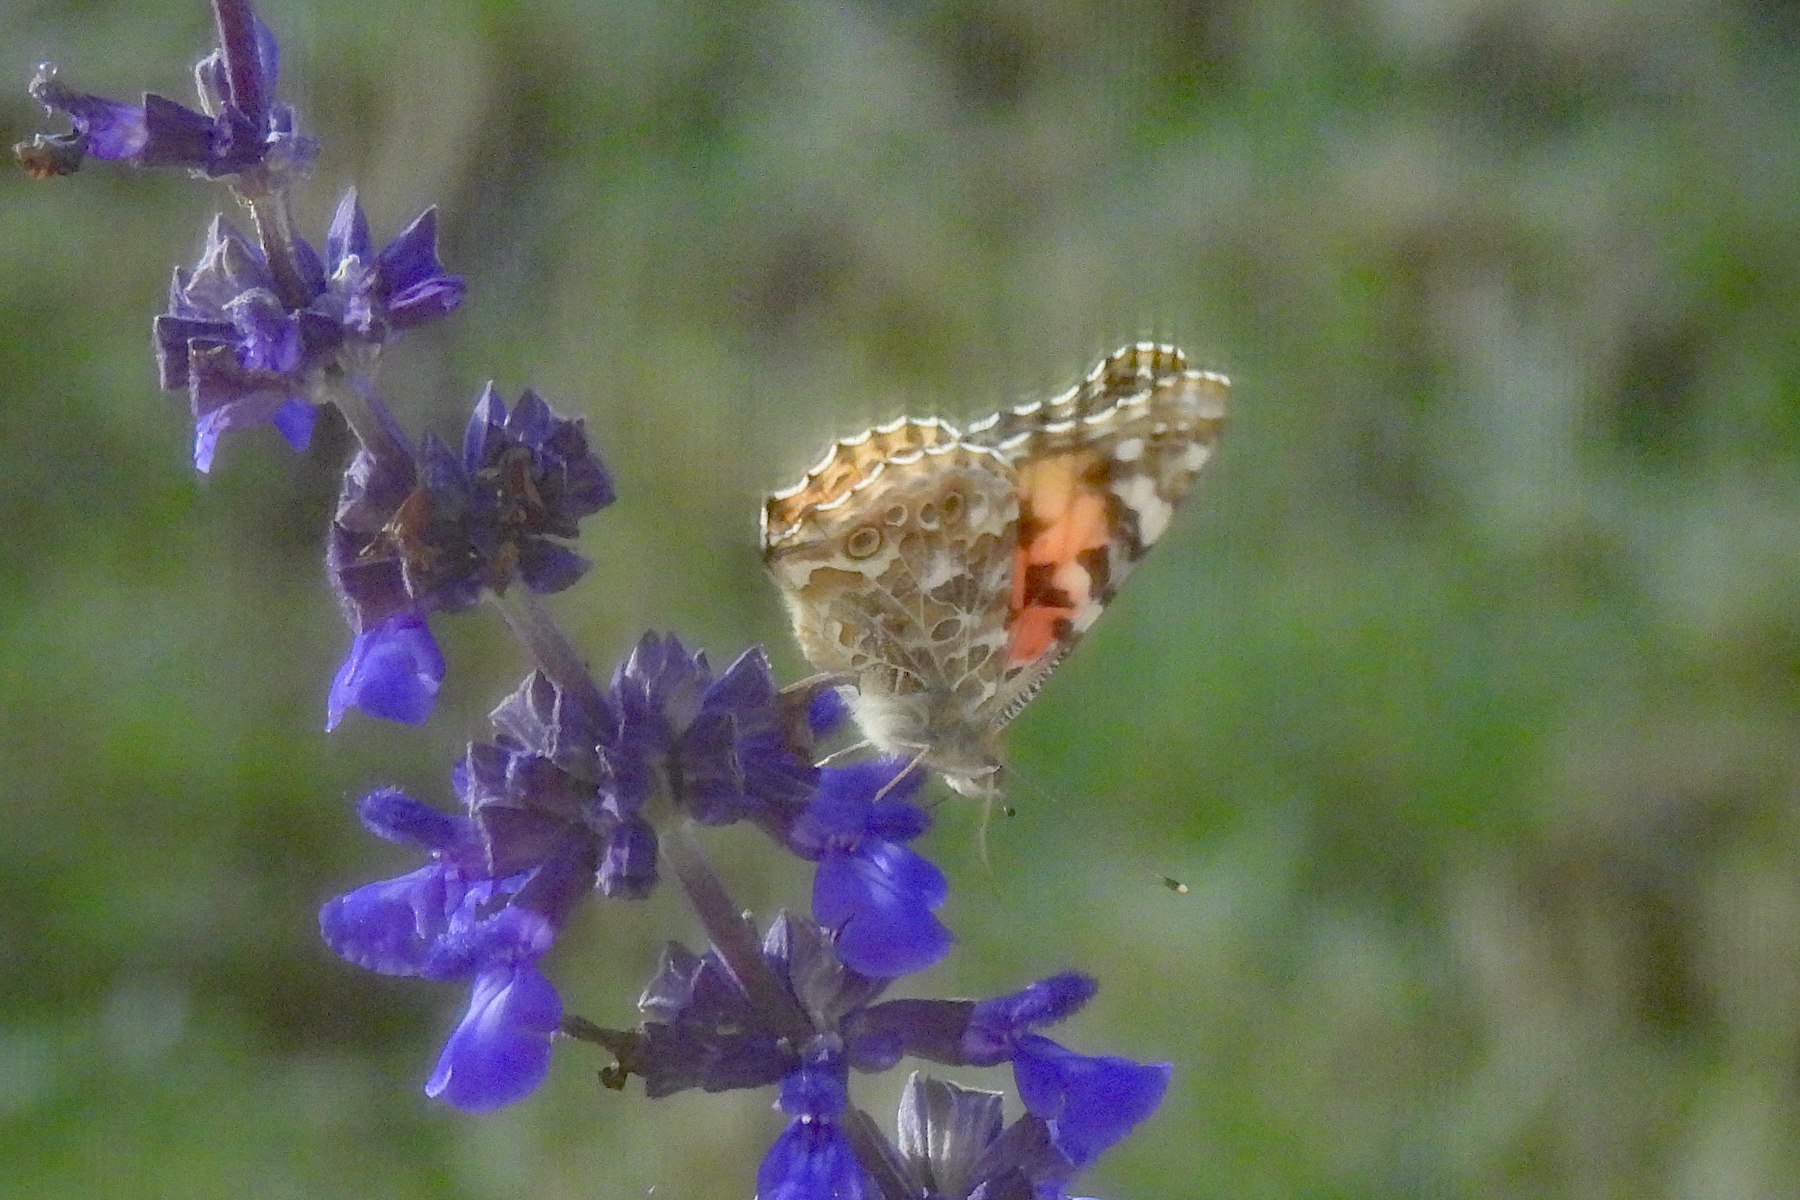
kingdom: Animalia
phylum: Arthropoda
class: Insecta
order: Lepidoptera
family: Nymphalidae
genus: Vanessa
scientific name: Vanessa cardui
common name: Painted lady
